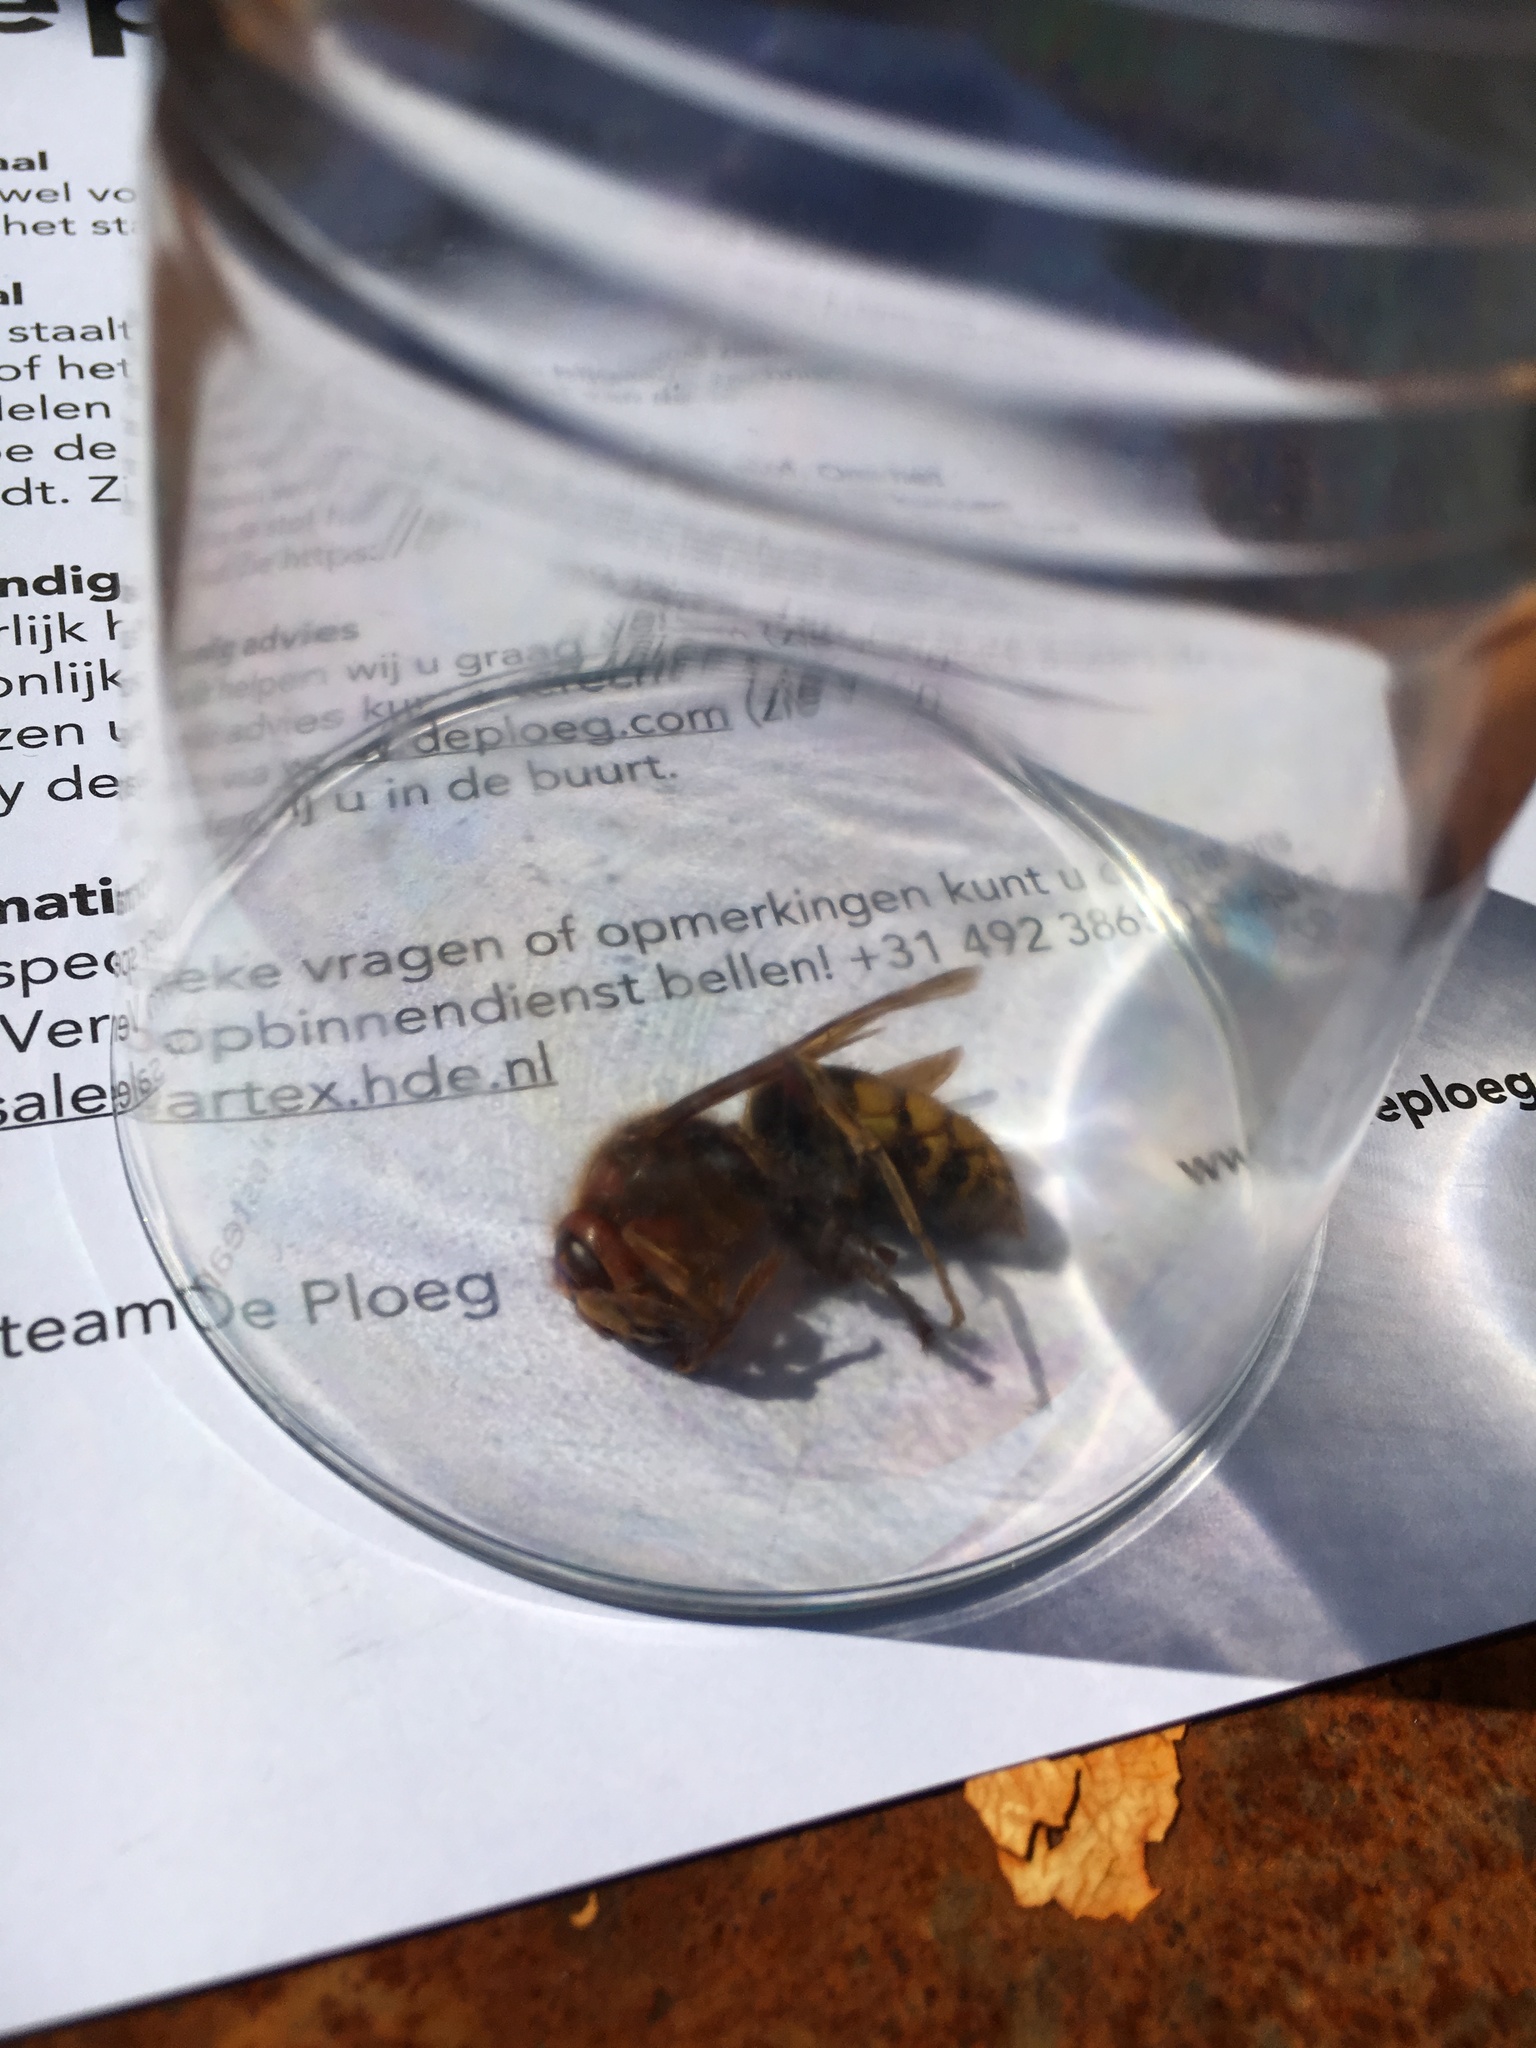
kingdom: Animalia
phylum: Arthropoda
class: Insecta
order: Hymenoptera
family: Vespidae
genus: Vespa
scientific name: Vespa crabro
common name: Hornet
